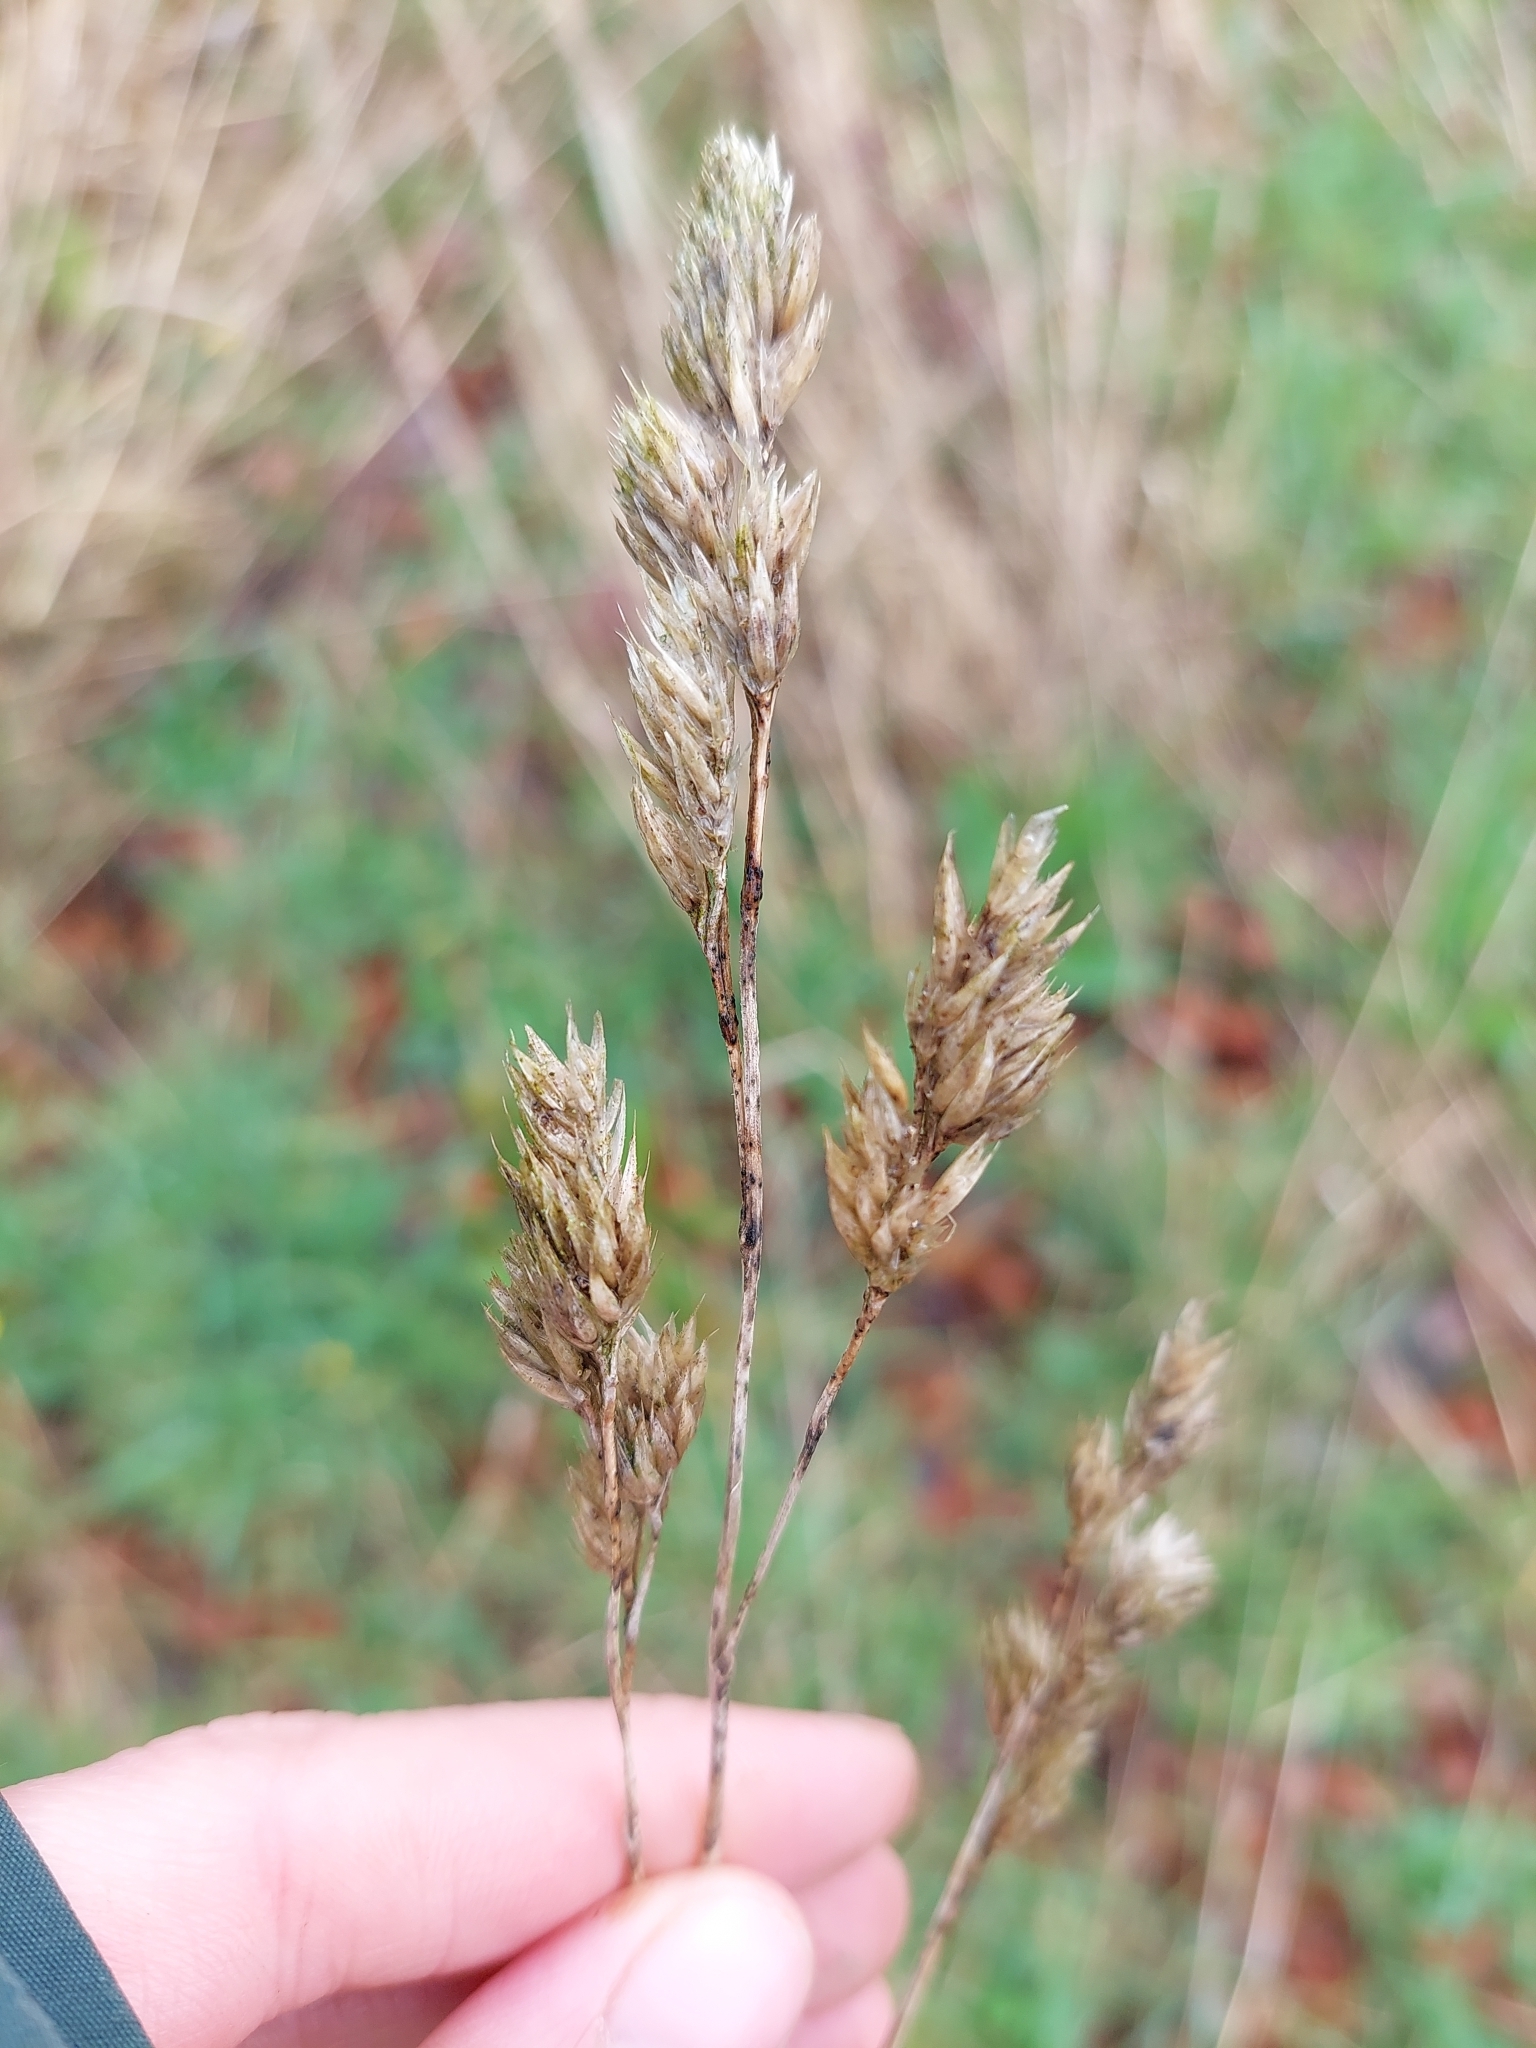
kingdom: Plantae
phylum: Tracheophyta
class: Liliopsida
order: Poales
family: Poaceae
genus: Dactylis
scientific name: Dactylis glomerata
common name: Orchardgrass
